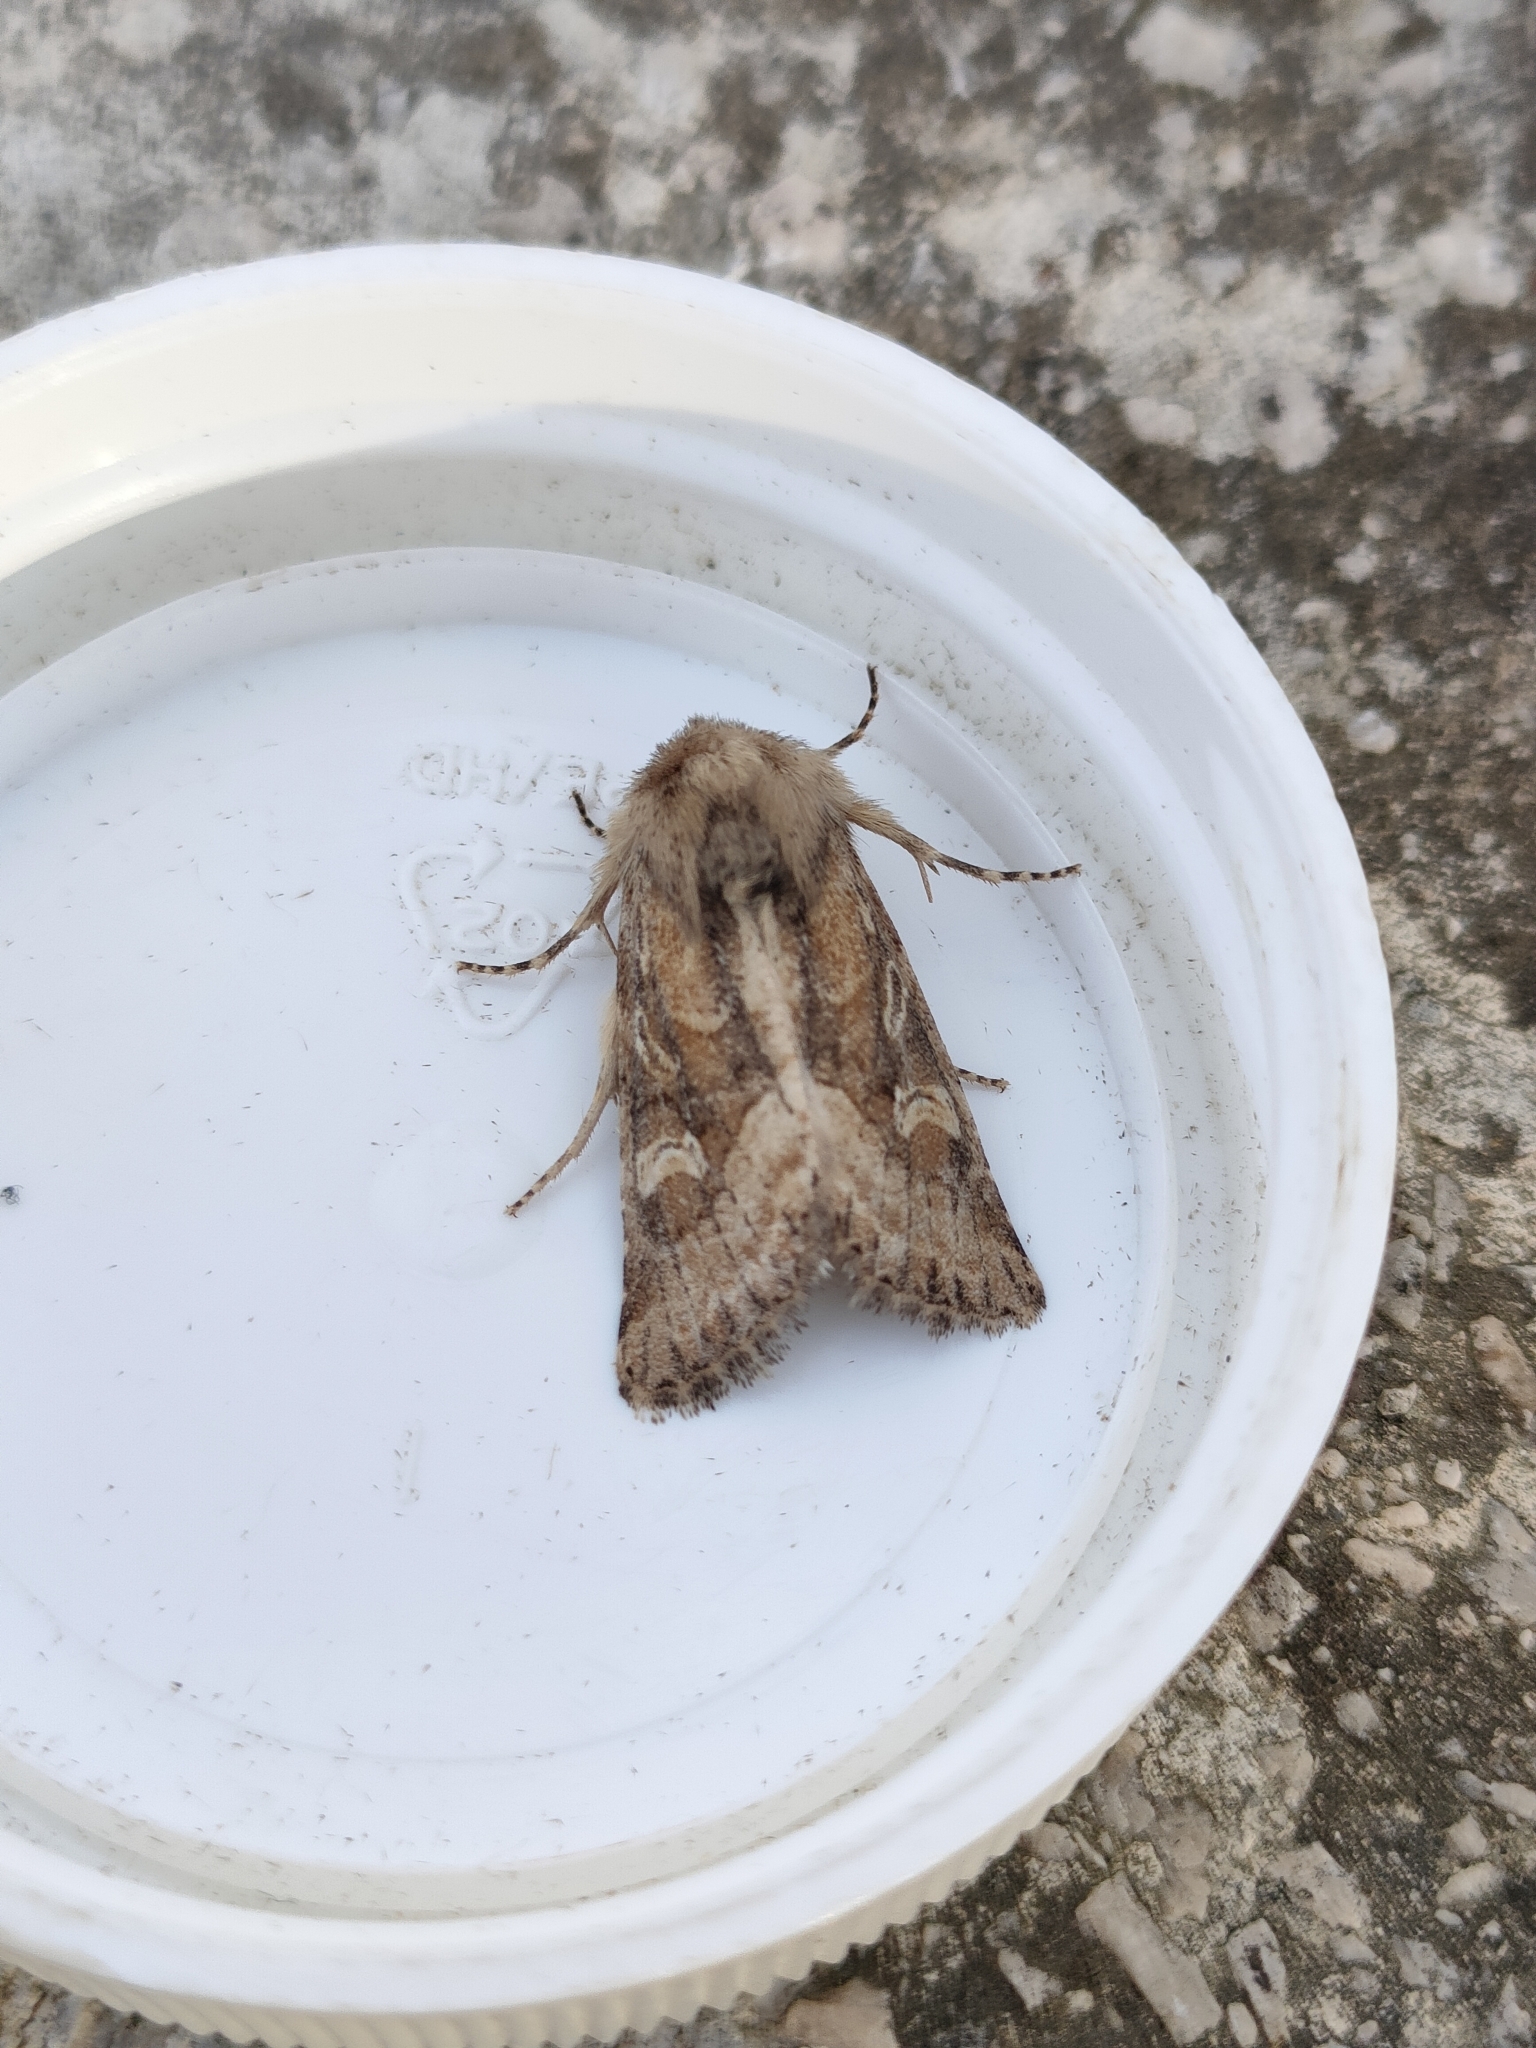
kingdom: Animalia
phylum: Arthropoda
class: Insecta
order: Lepidoptera
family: Noctuidae
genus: Luperina
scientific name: Luperina dumerilii
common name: Dumeril's rustic
